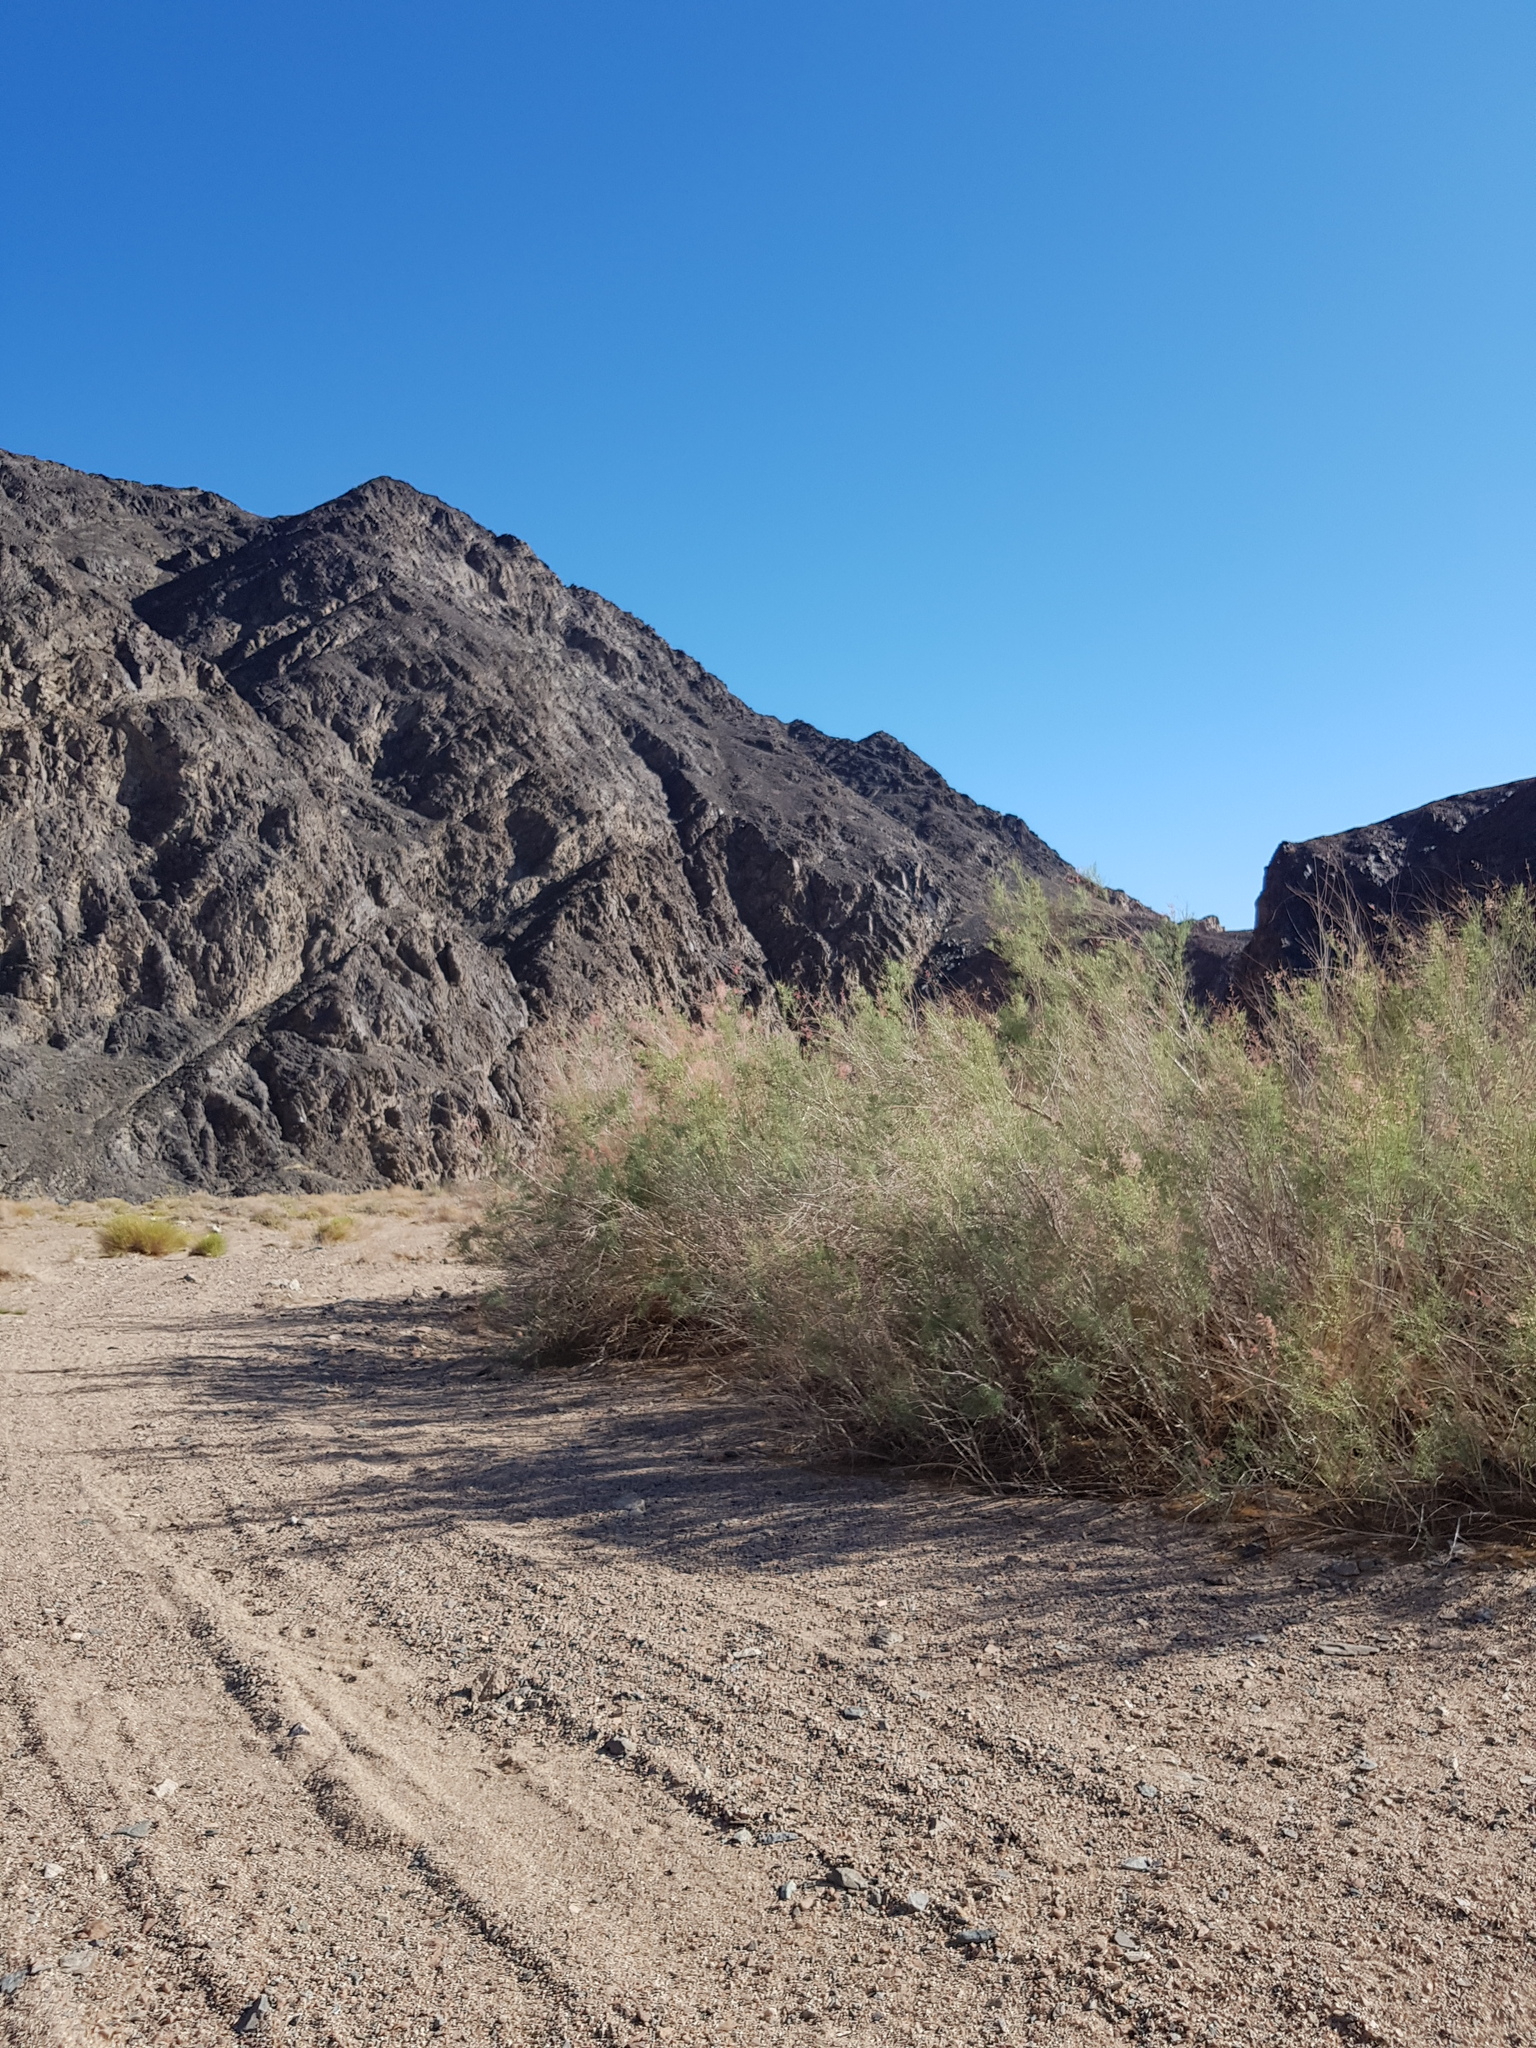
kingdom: Plantae
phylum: Tracheophyta
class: Magnoliopsida
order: Caryophyllales
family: Tamaricaceae
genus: Tamarix
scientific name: Tamarix ramosissima
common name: Pink tamarisk
